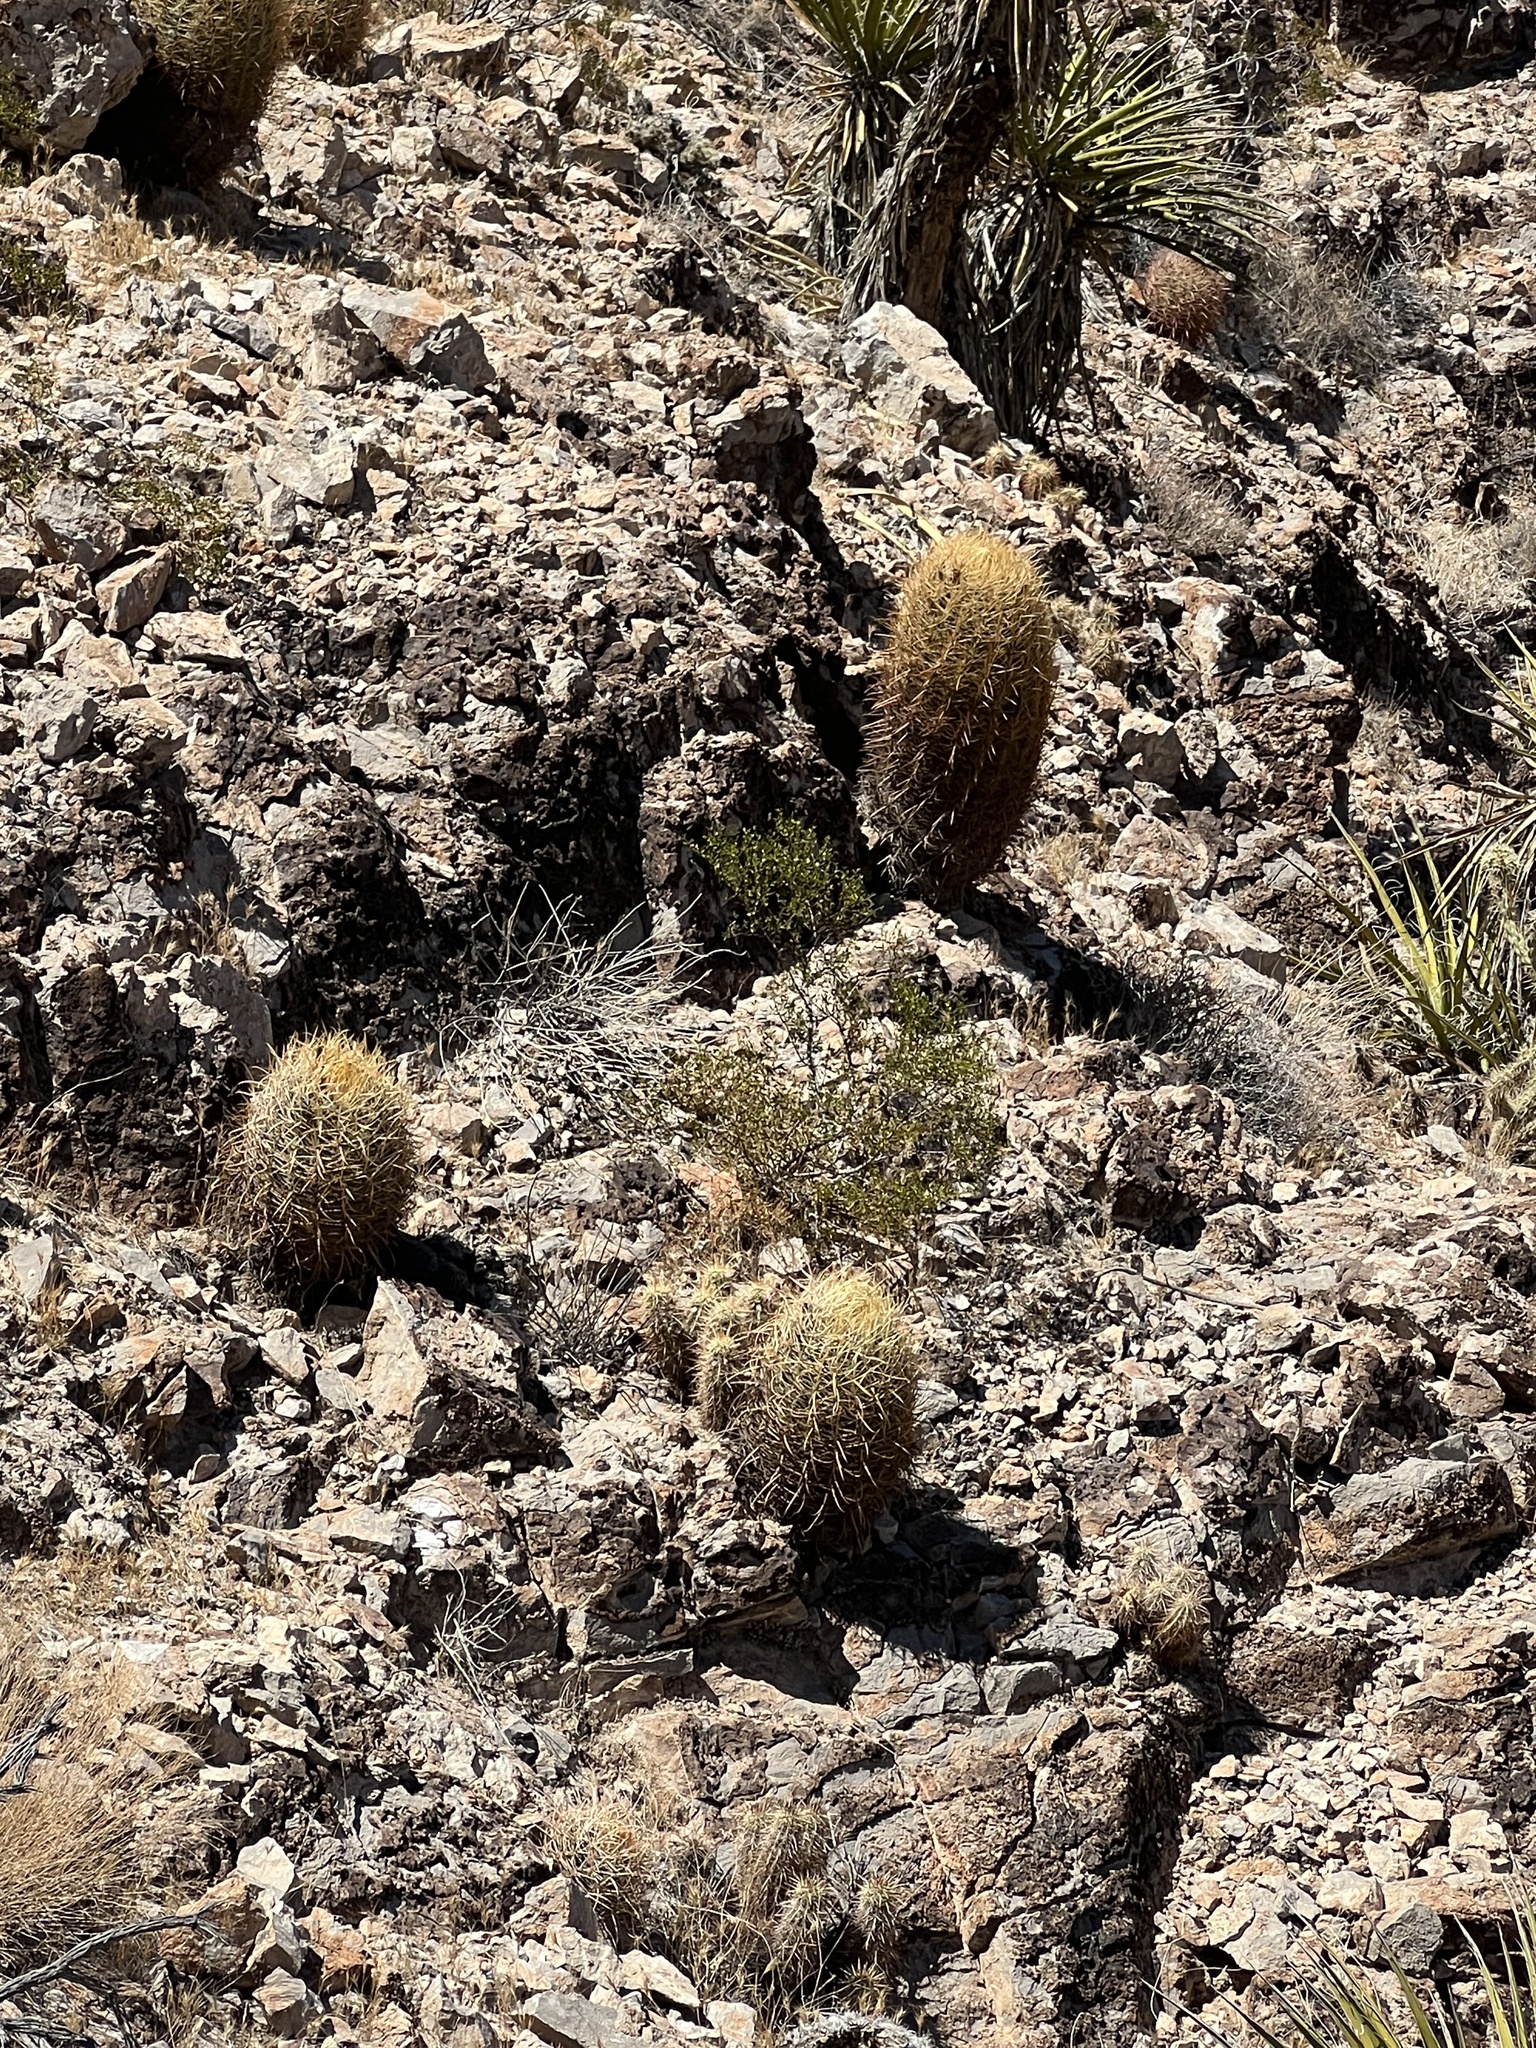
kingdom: Plantae
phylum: Tracheophyta
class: Magnoliopsida
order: Caryophyllales
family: Cactaceae
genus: Ferocactus
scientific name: Ferocactus cylindraceus
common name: California barrel cactus
